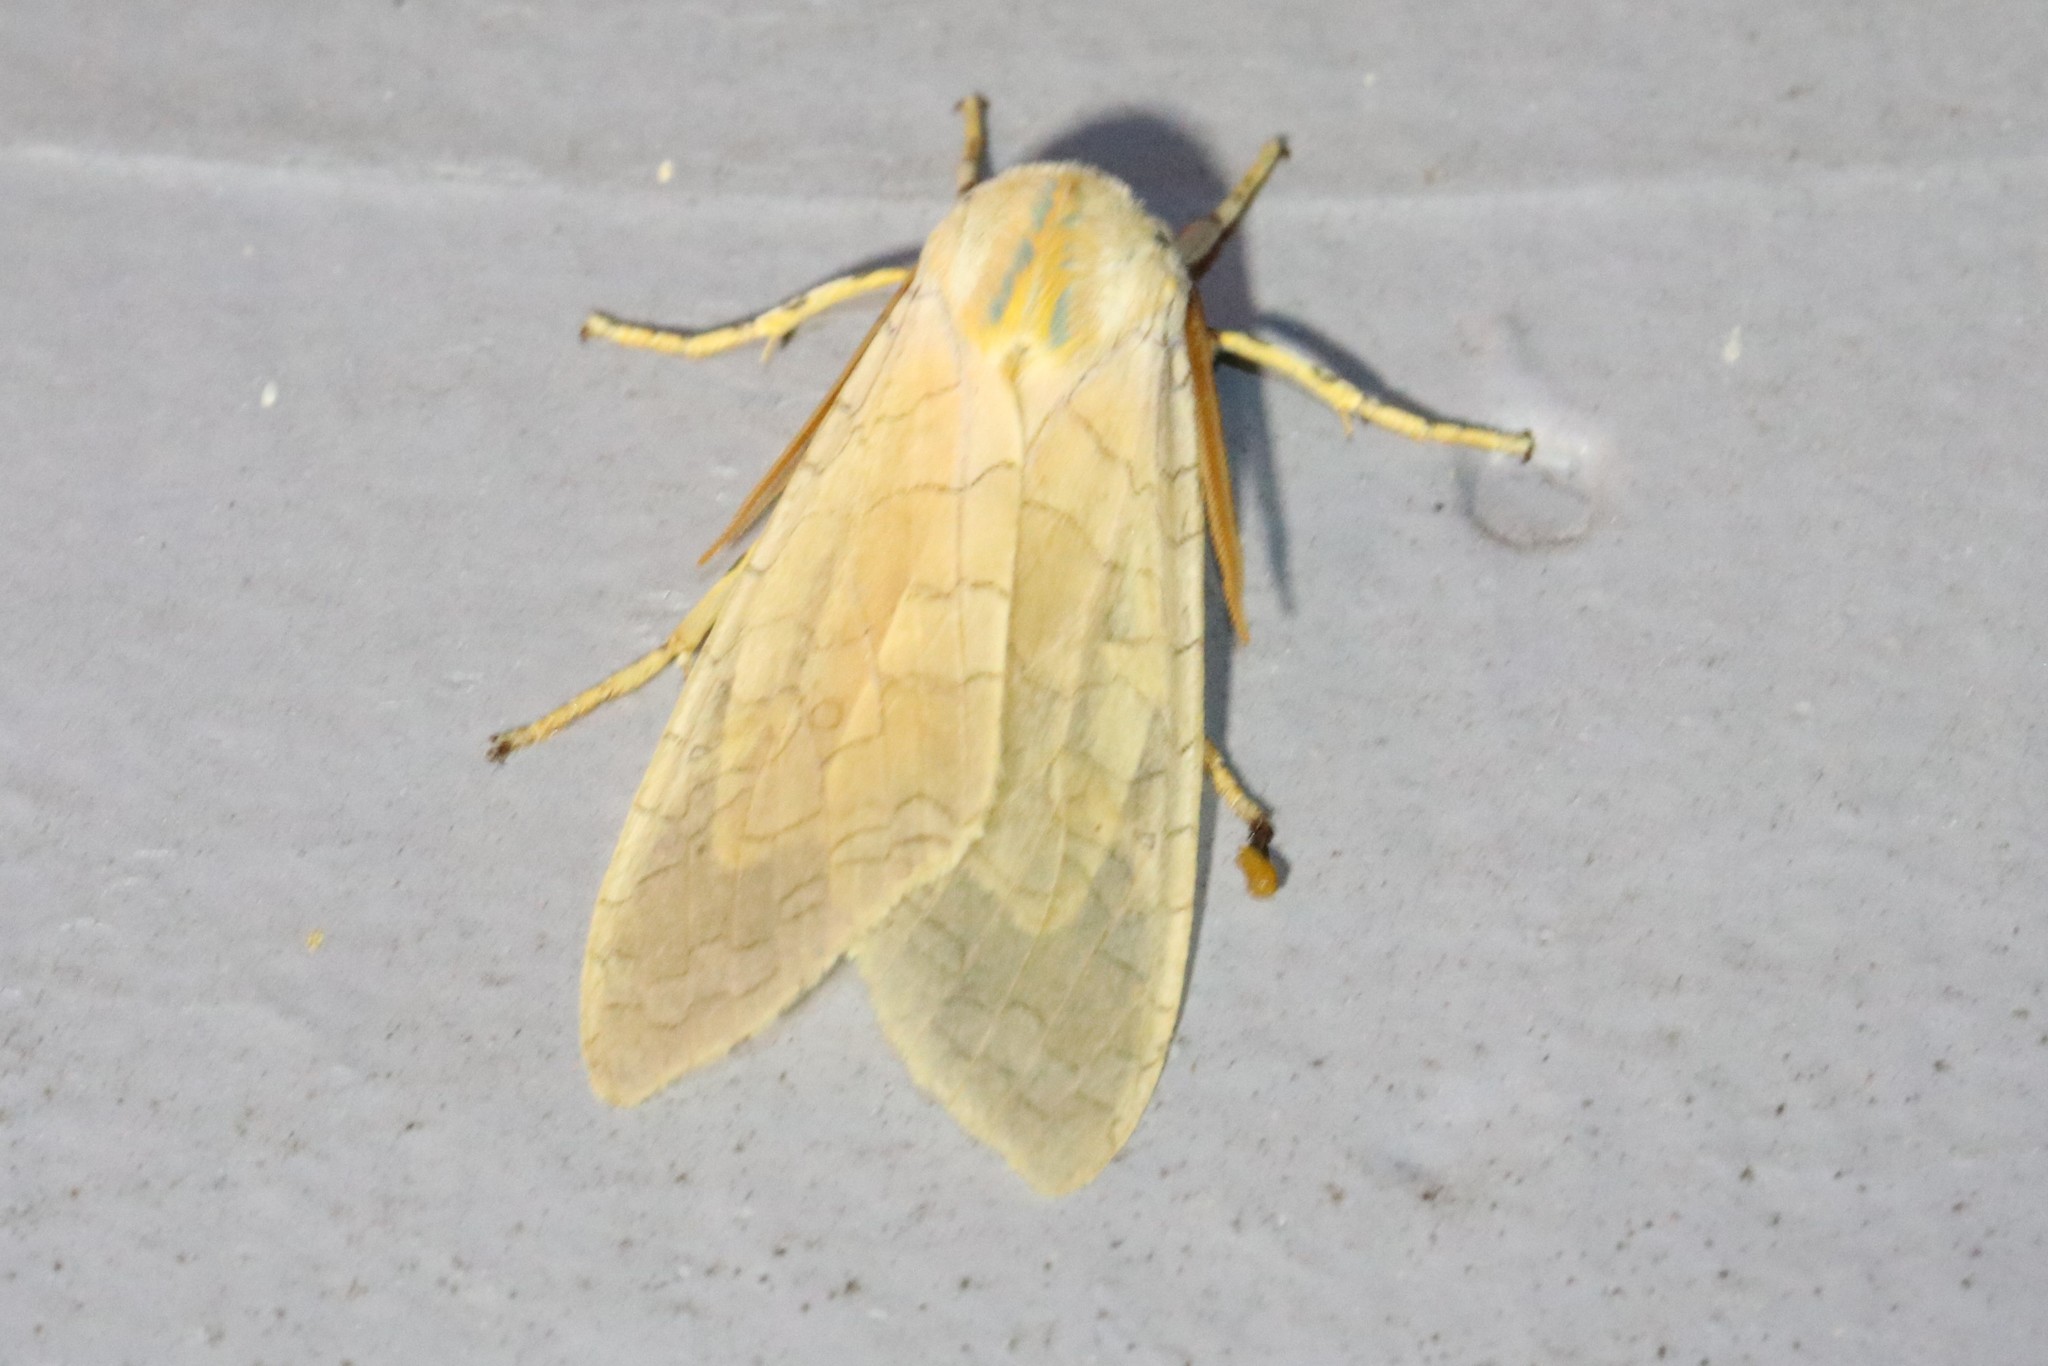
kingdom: Animalia
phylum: Arthropoda
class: Insecta
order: Lepidoptera
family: Erebidae
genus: Halysidota
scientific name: Halysidota tessellaris
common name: Banded tussock moth
